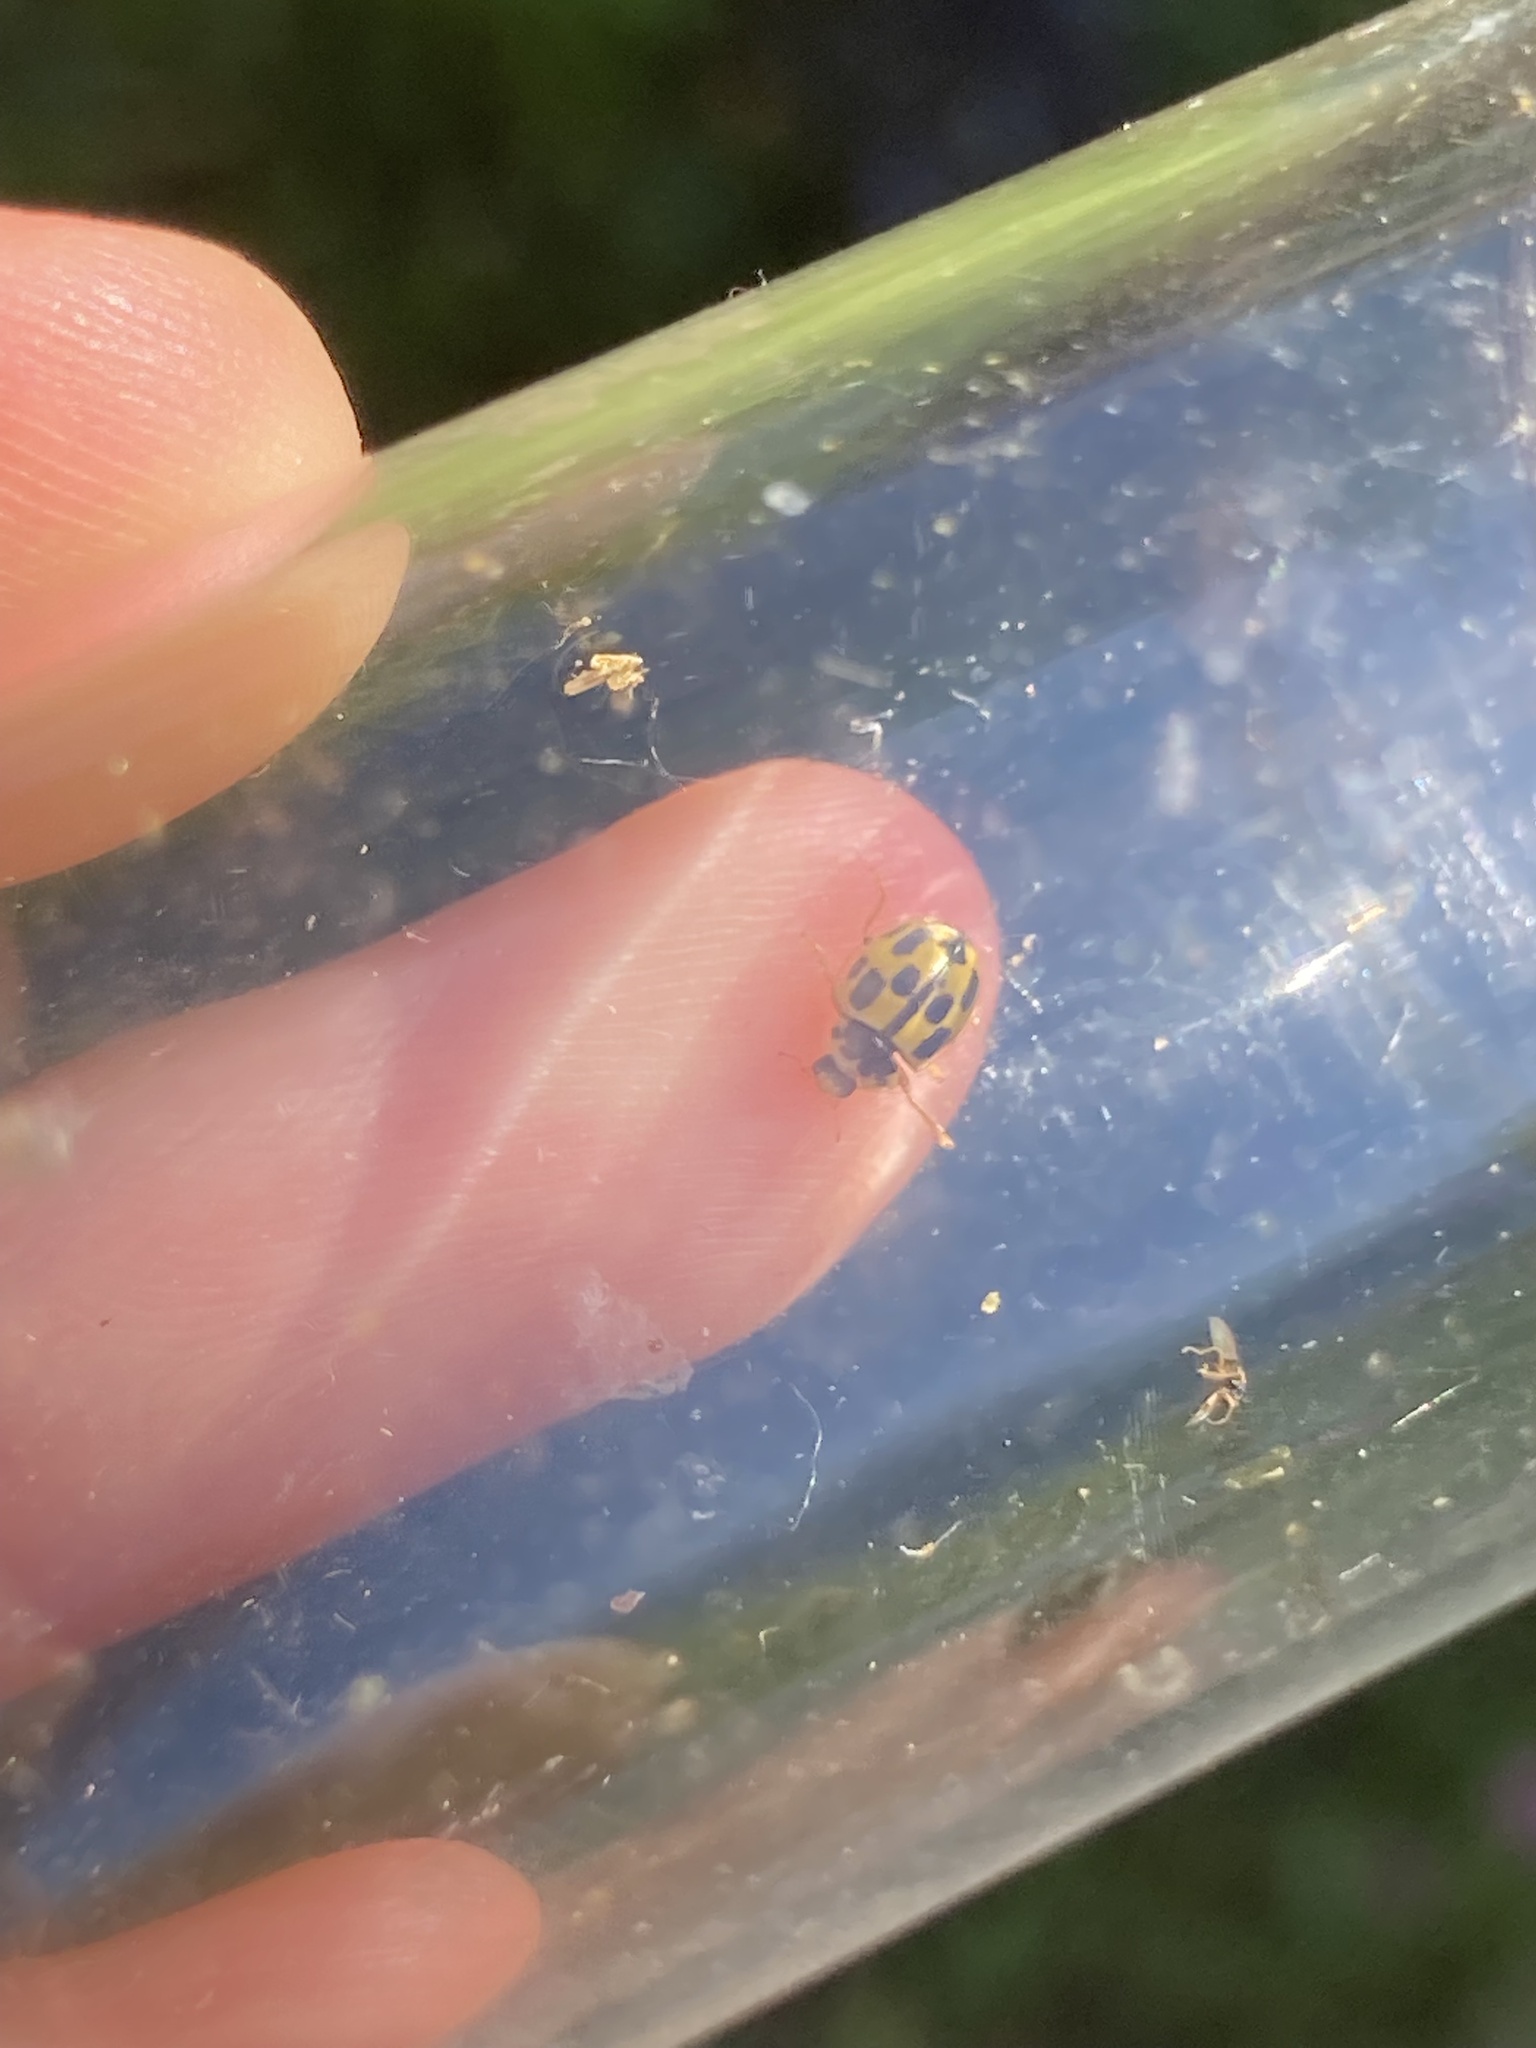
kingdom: Animalia
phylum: Arthropoda
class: Insecta
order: Coleoptera
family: Coccinellidae
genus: Propylaea
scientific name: Propylaea quatuordecimpunctata
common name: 14-spotted ladybird beetle
